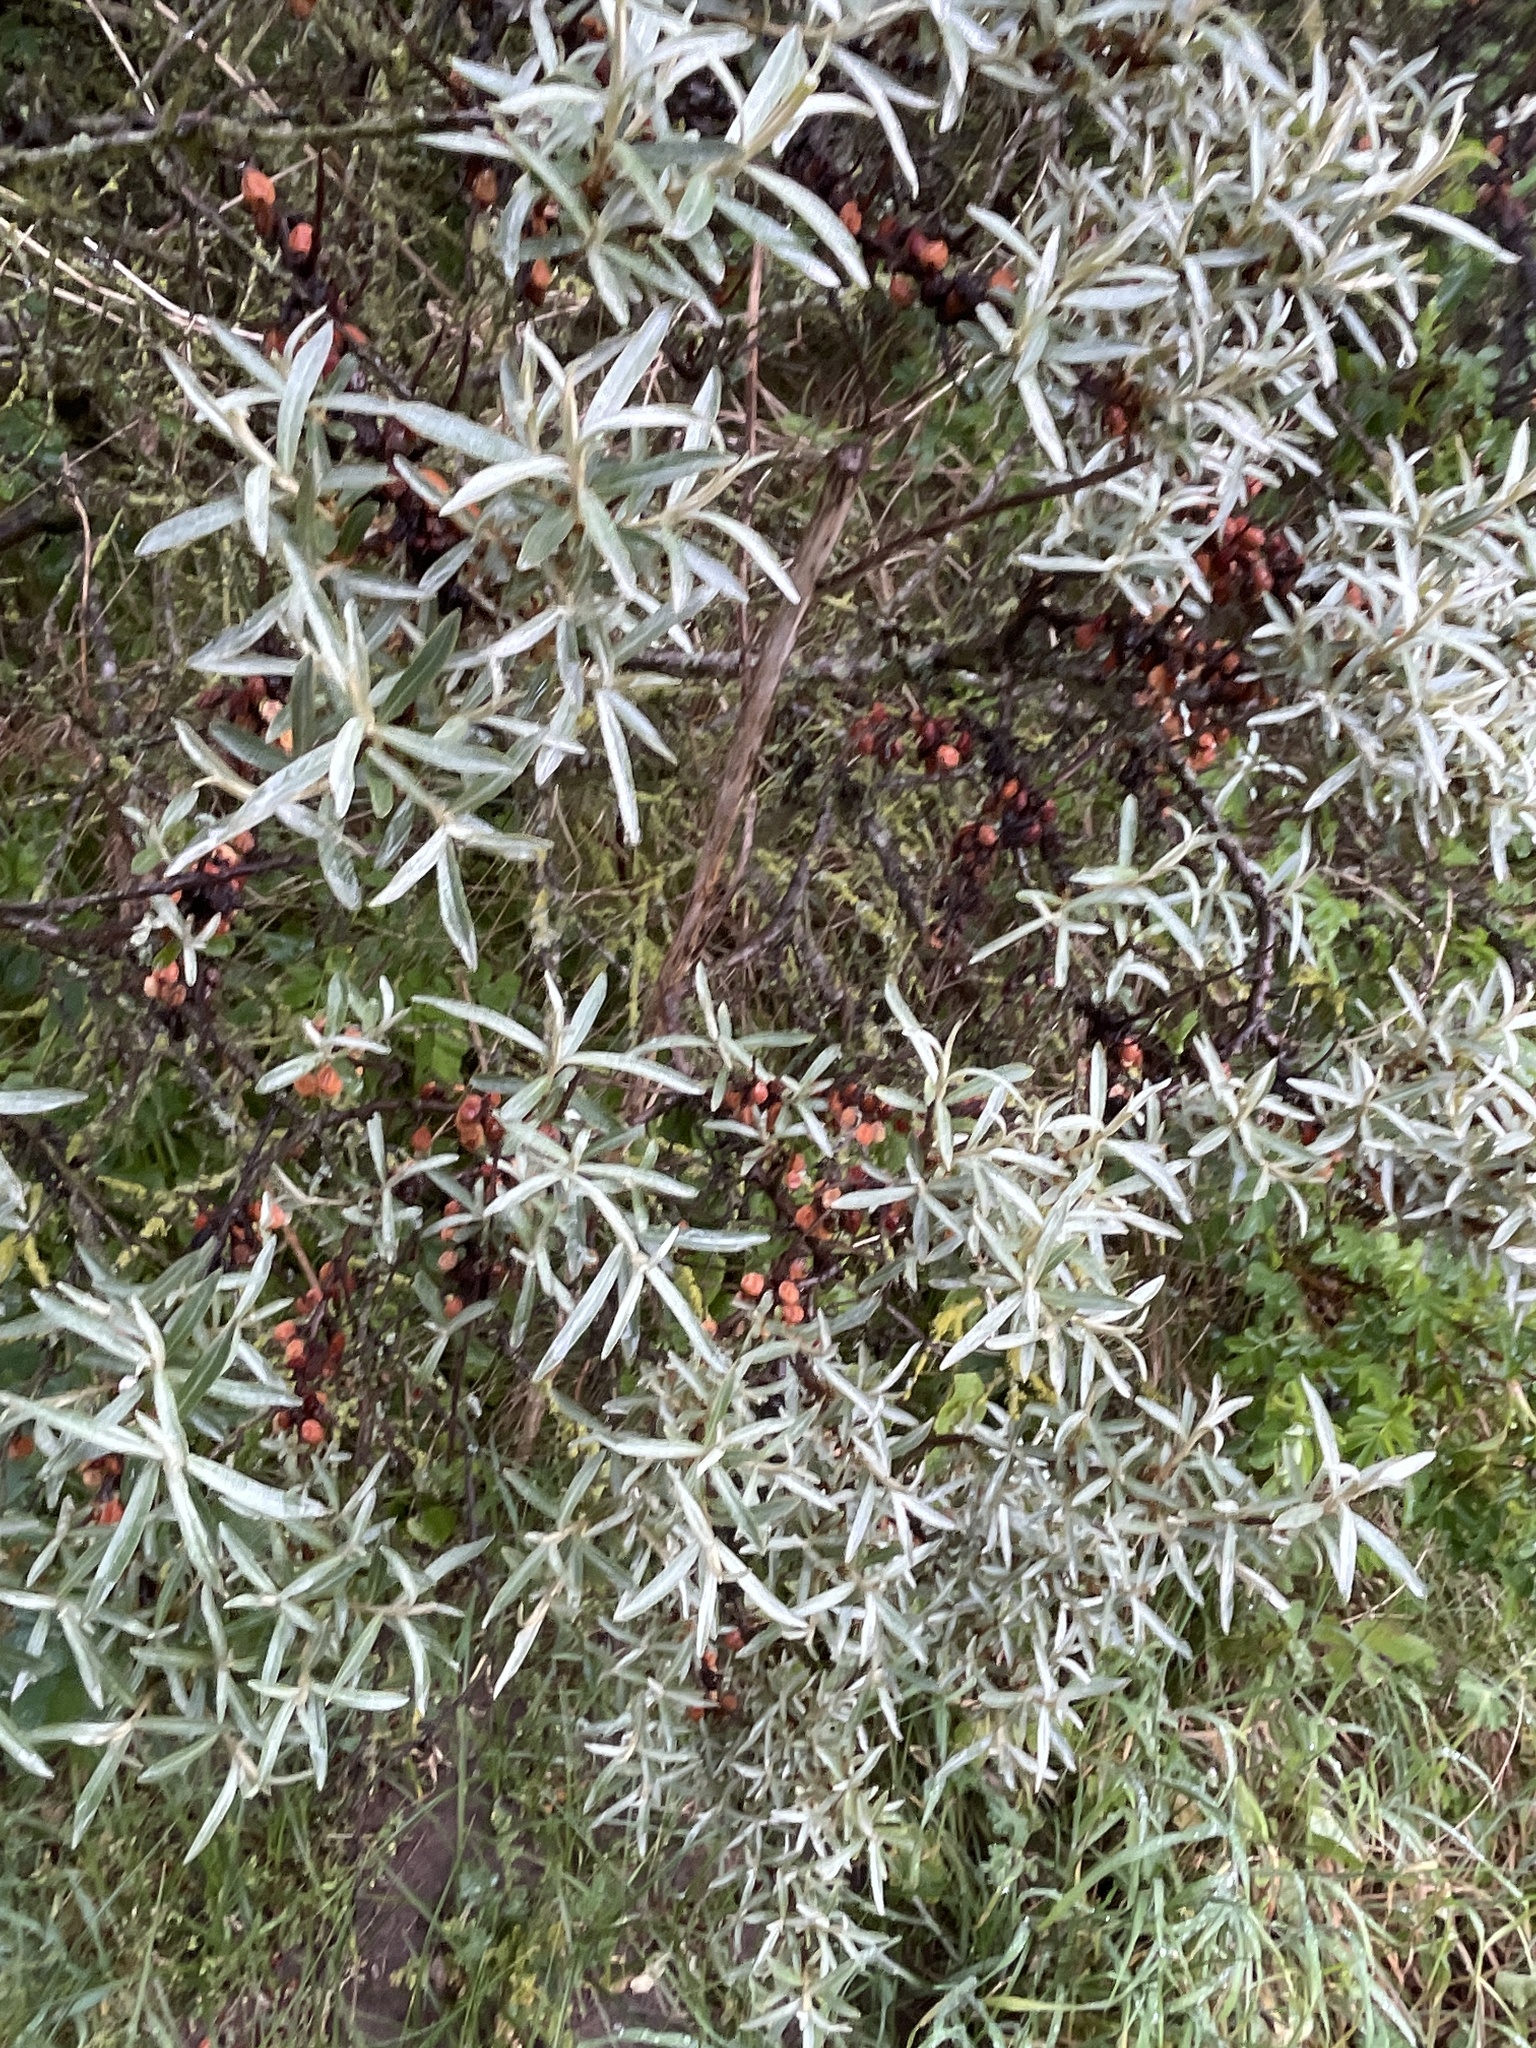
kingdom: Plantae
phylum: Tracheophyta
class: Magnoliopsida
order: Rosales
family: Elaeagnaceae
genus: Hippophae
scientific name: Hippophae rhamnoides
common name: Sea-buckthorn
